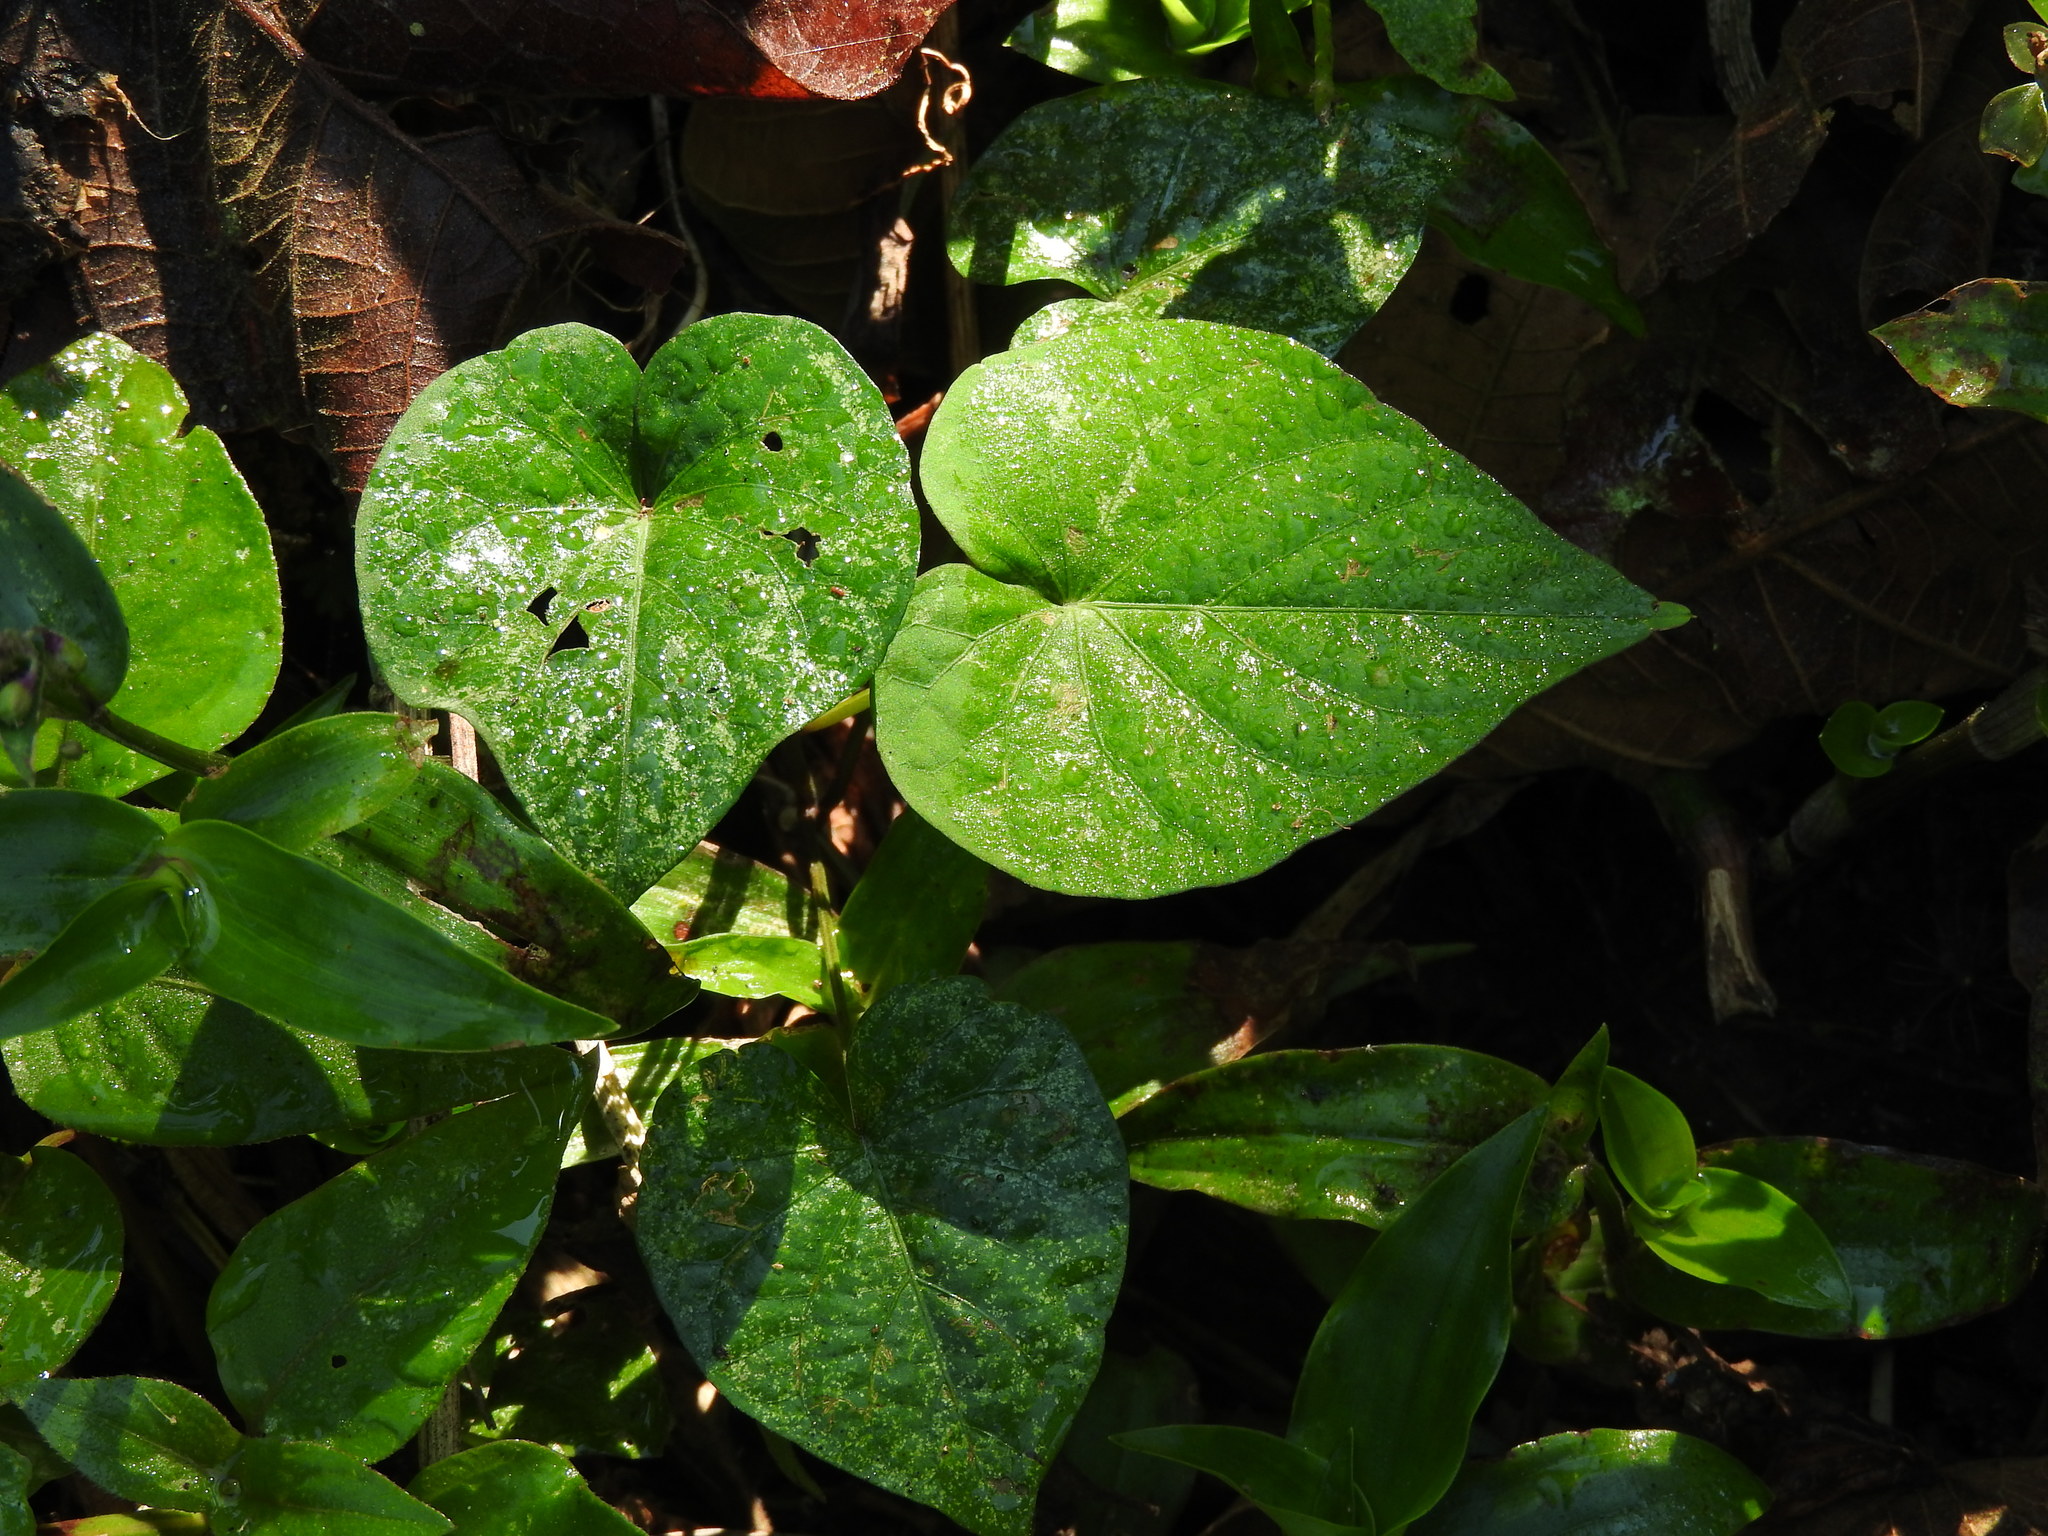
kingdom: Plantae
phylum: Tracheophyta
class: Magnoliopsida
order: Solanales
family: Convolvulaceae
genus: Ipomoea
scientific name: Ipomoea batatas
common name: Sweet-potato
